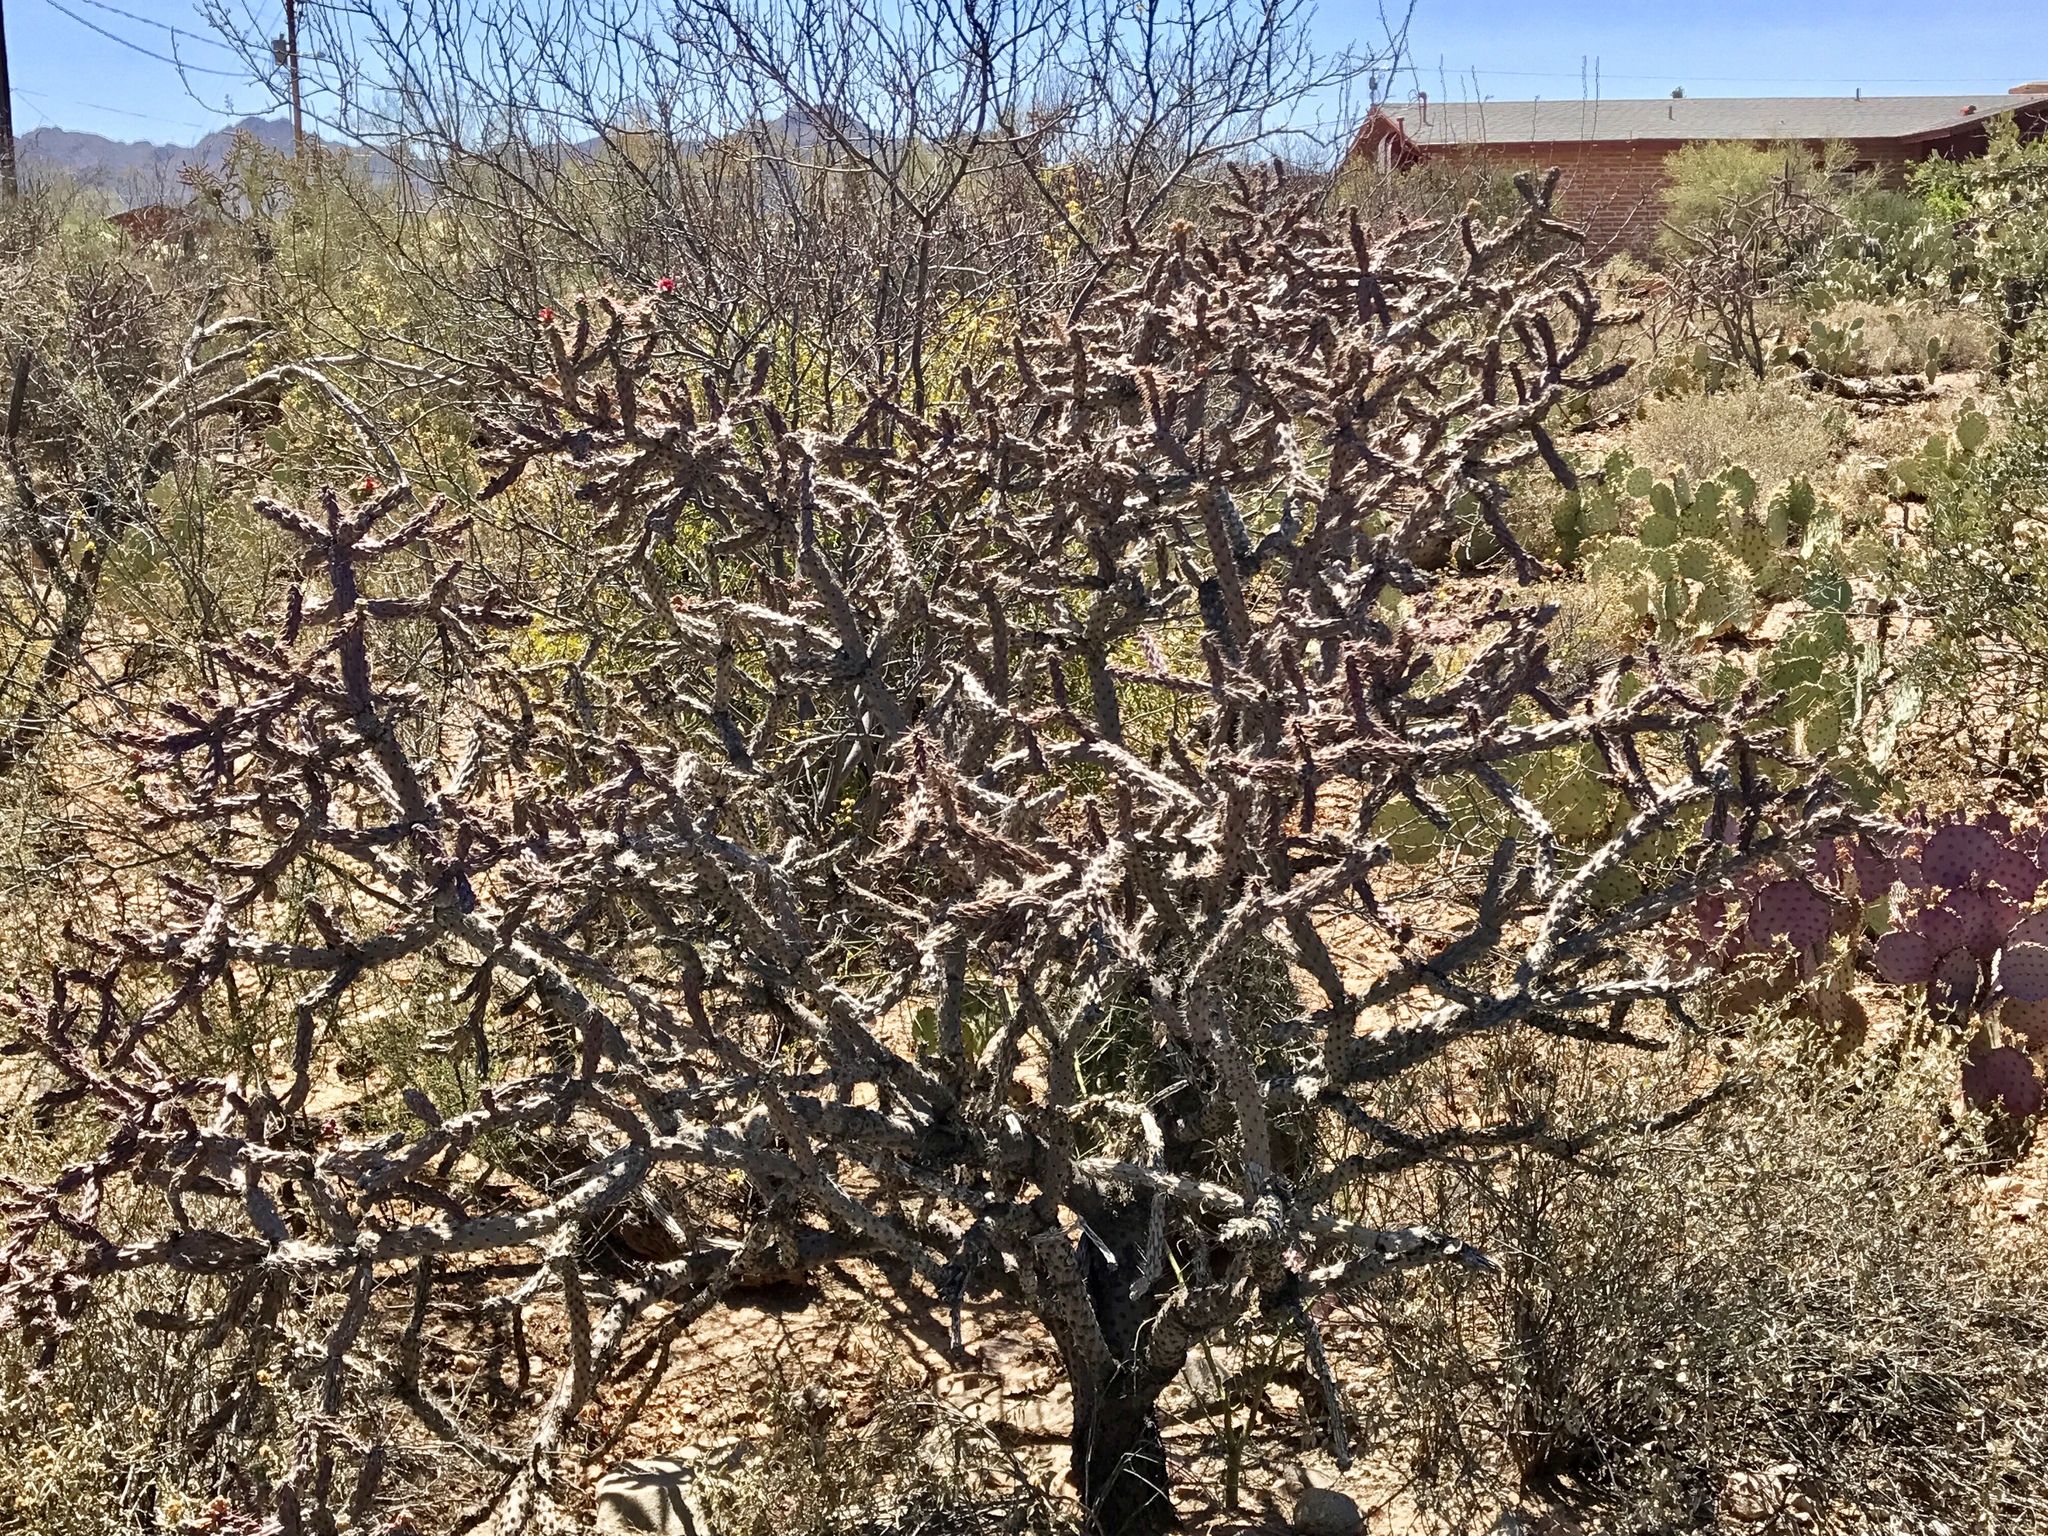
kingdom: Plantae
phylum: Tracheophyta
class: Magnoliopsida
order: Caryophyllales
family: Cactaceae
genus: Cylindropuntia
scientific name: Cylindropuntia imbricata
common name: Candelabrum cactus
